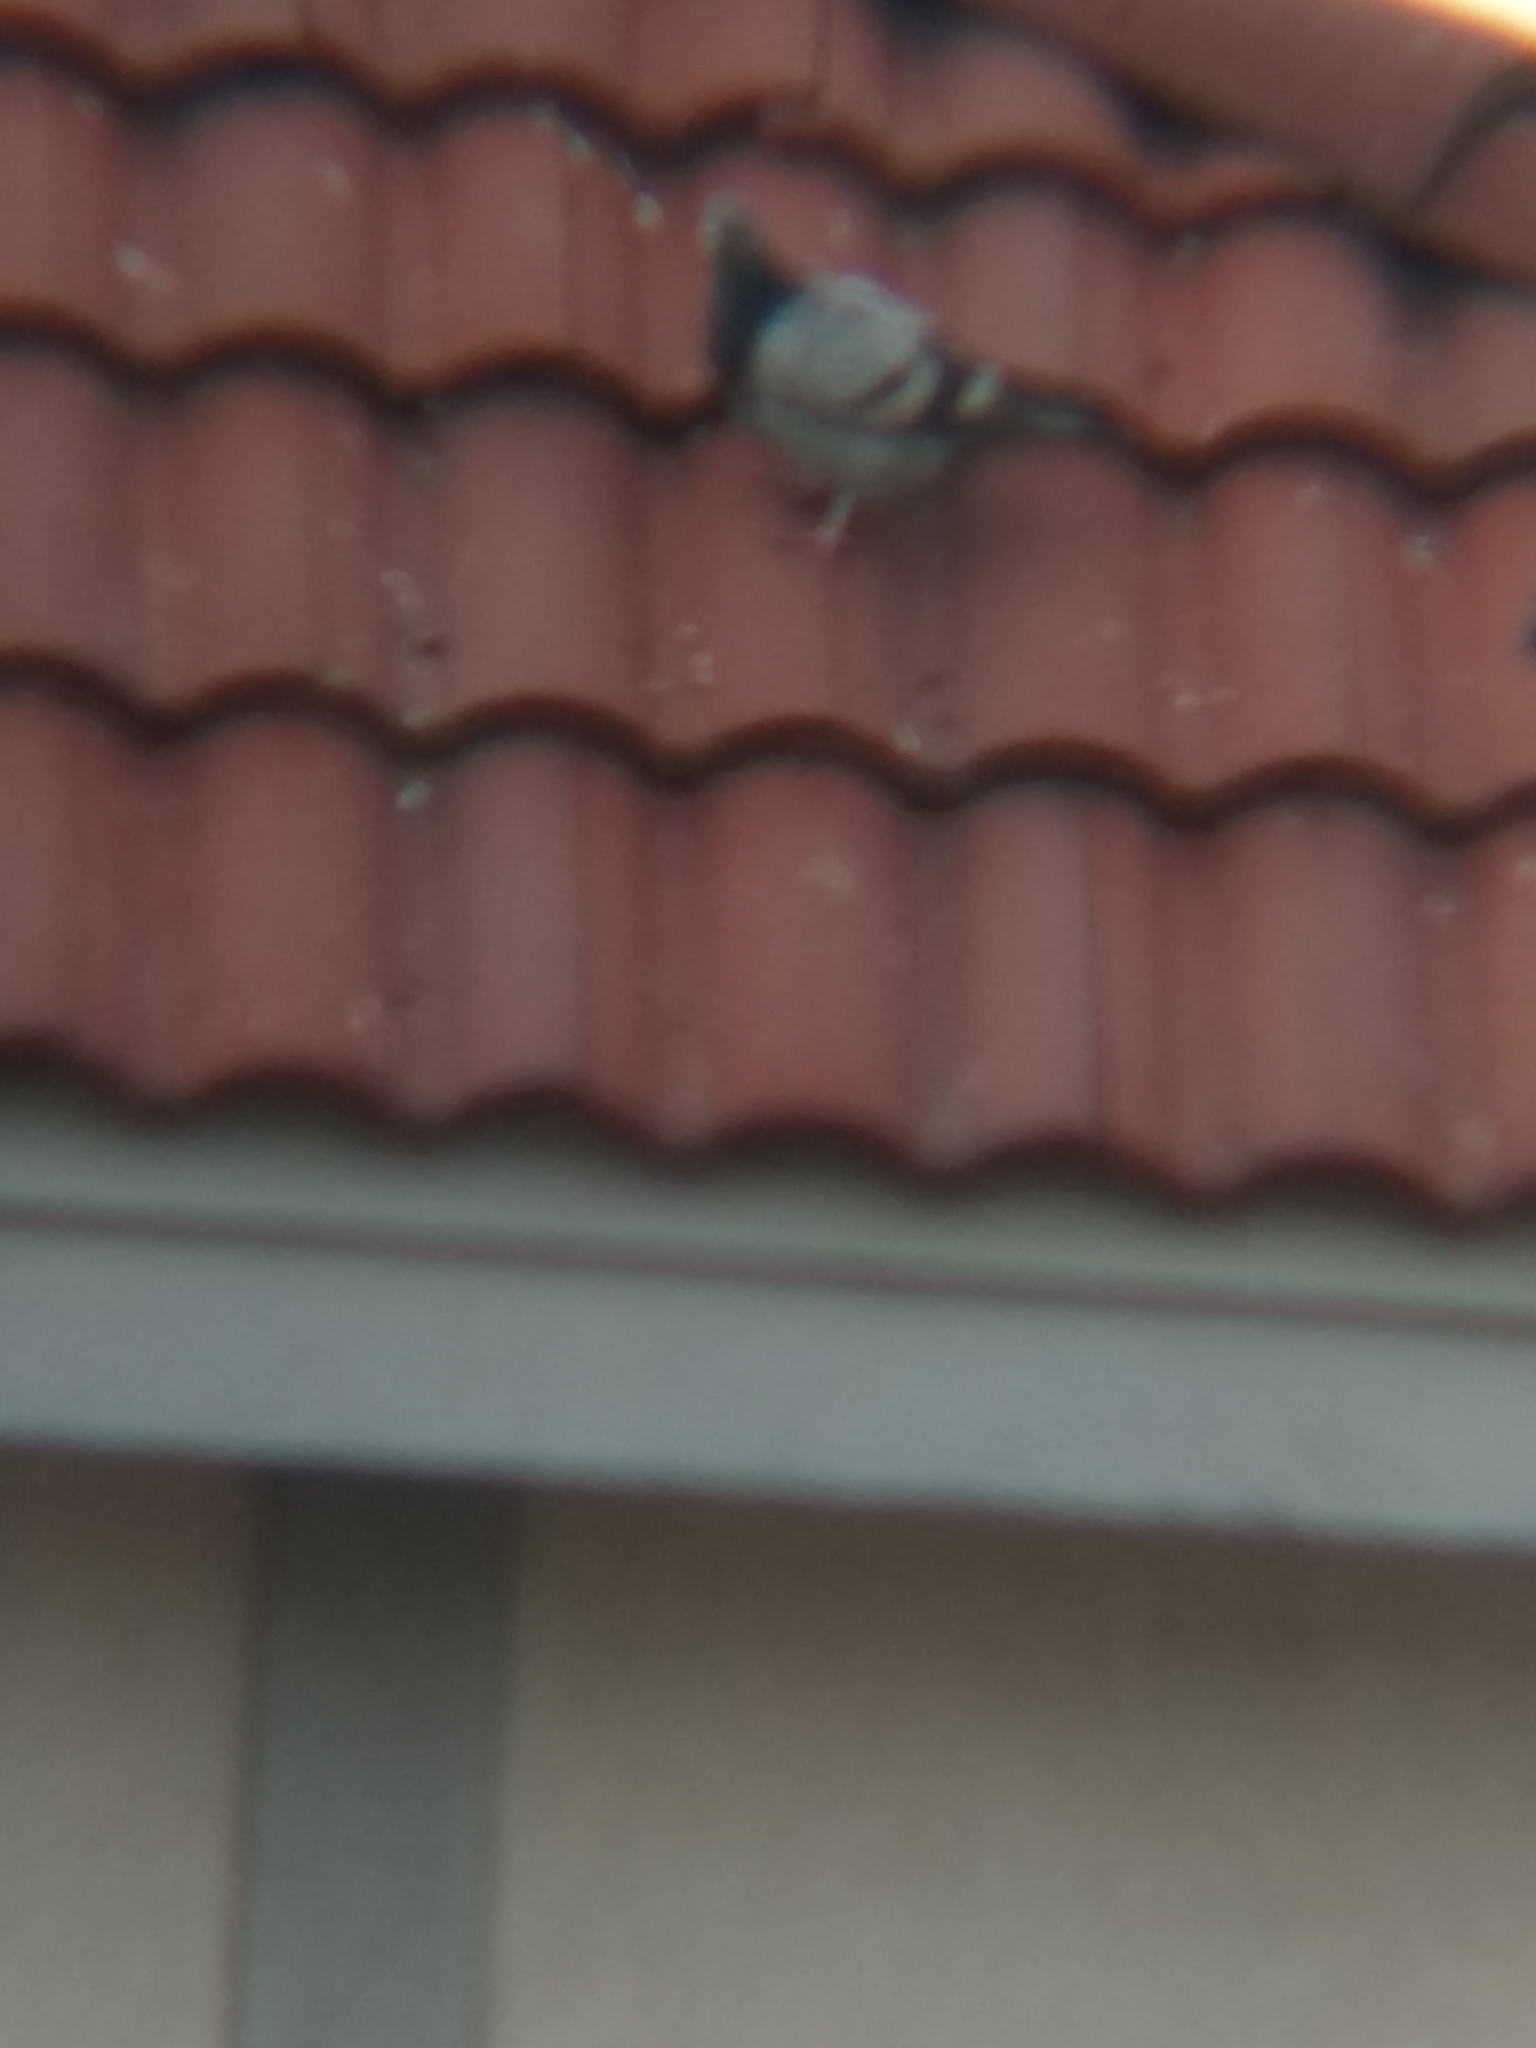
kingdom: Animalia
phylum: Chordata
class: Aves
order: Columbiformes
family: Columbidae
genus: Columba
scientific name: Columba livia
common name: Rock pigeon
